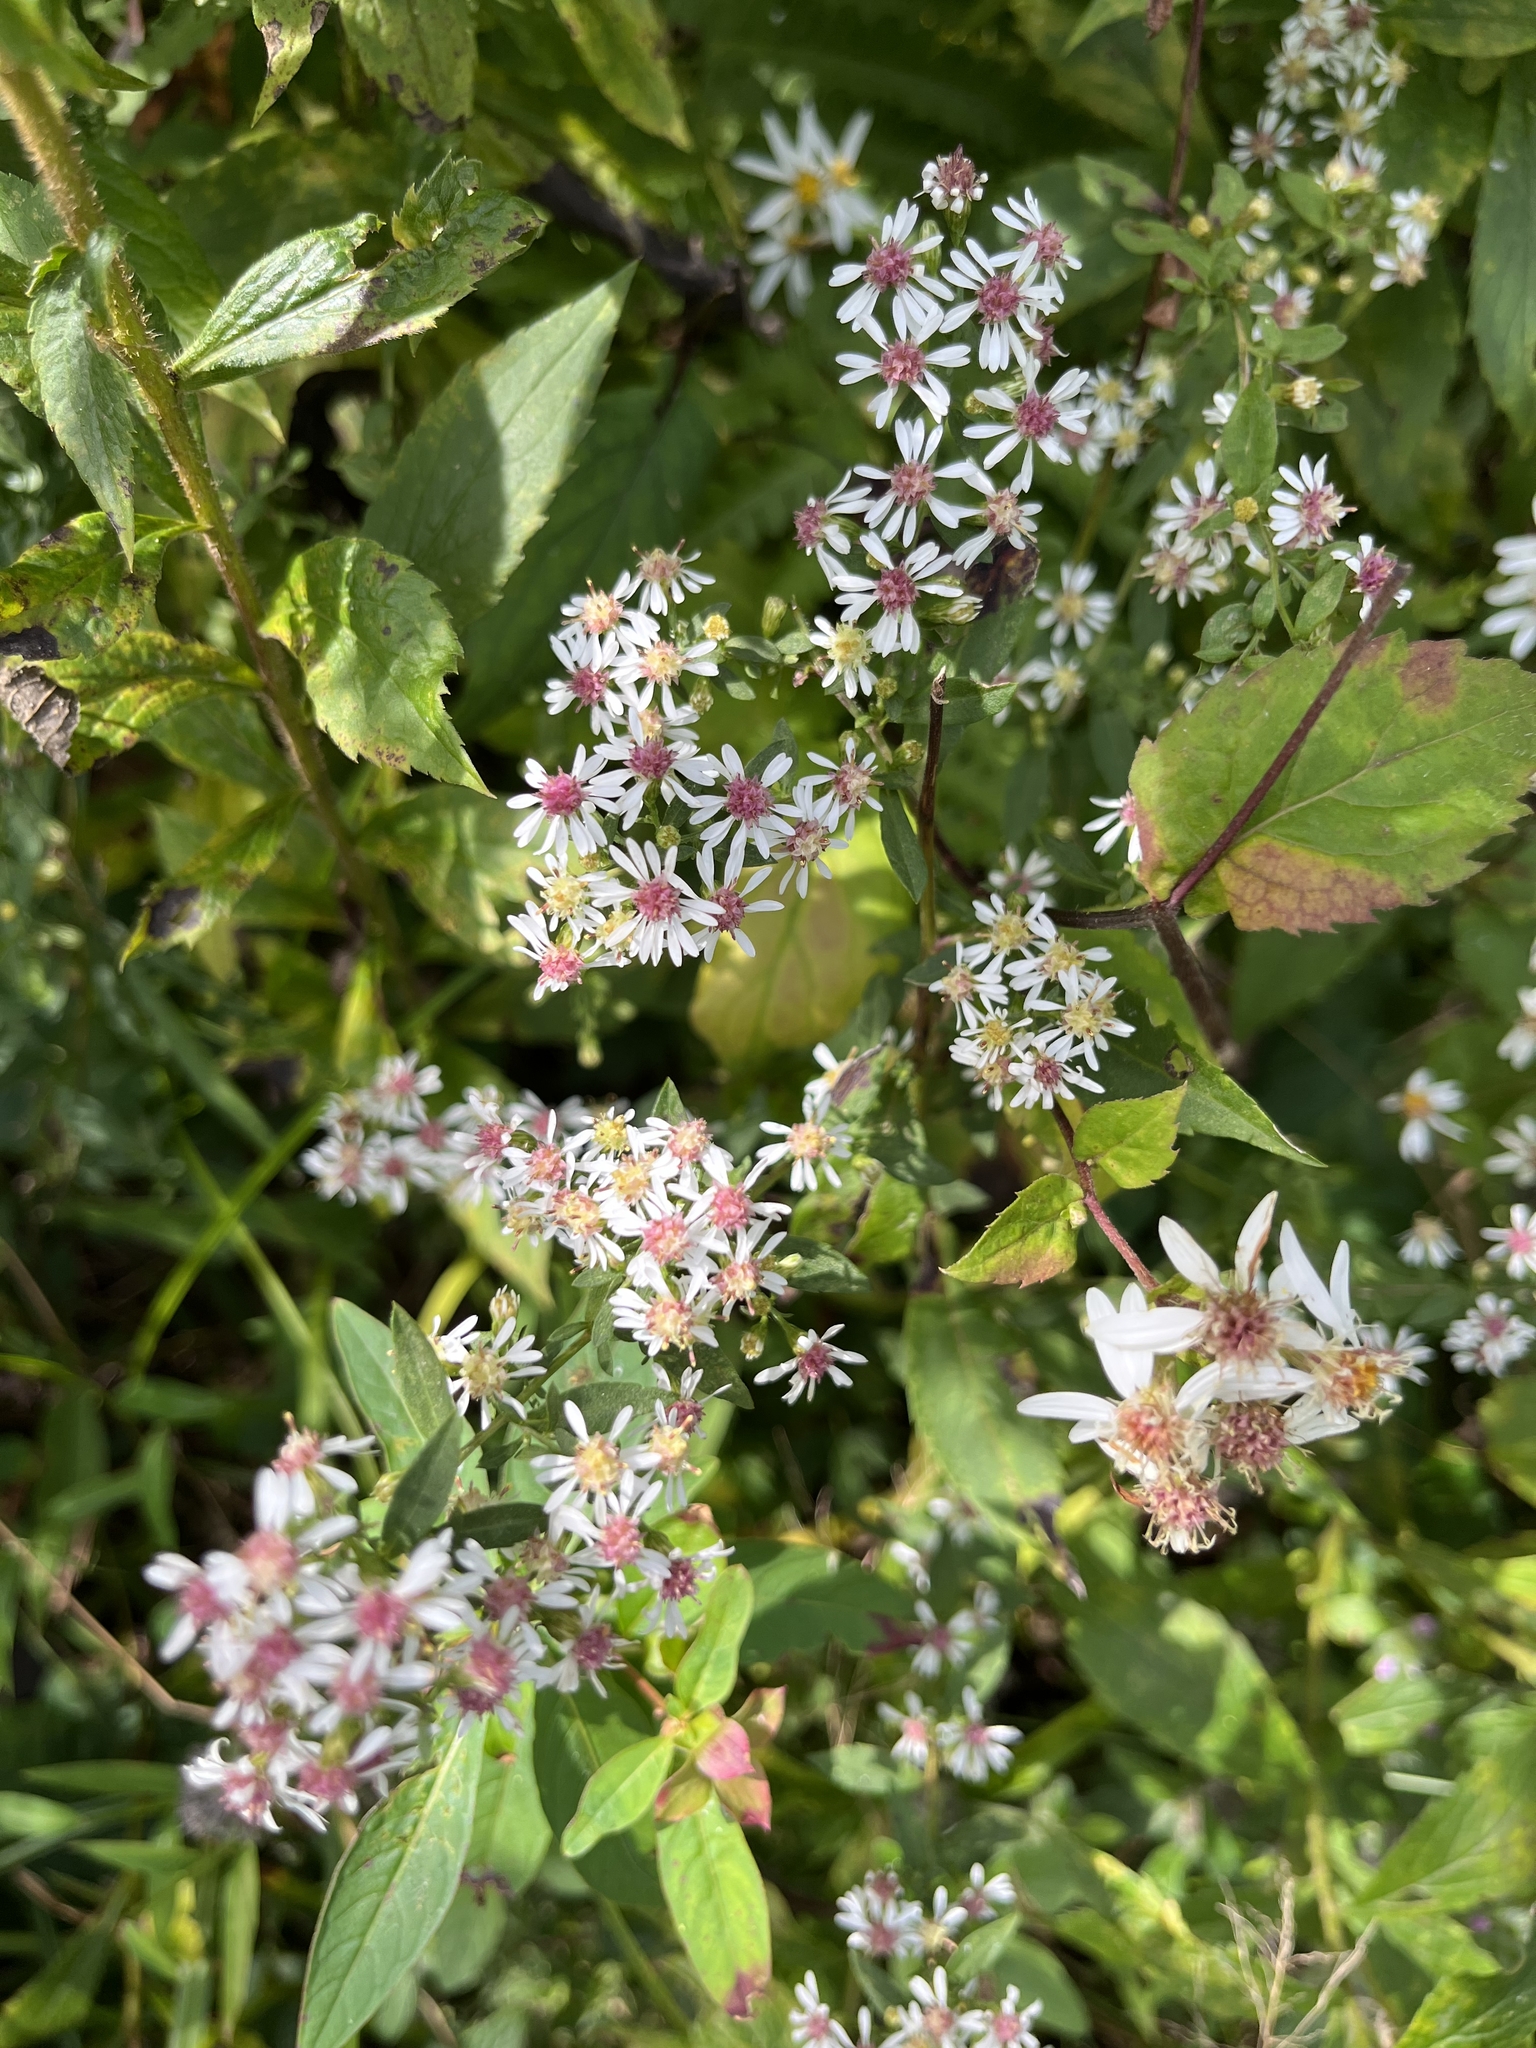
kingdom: Plantae
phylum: Tracheophyta
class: Magnoliopsida
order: Asterales
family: Asteraceae
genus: Symphyotrichum
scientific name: Symphyotrichum lateriflorum
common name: Calico aster
